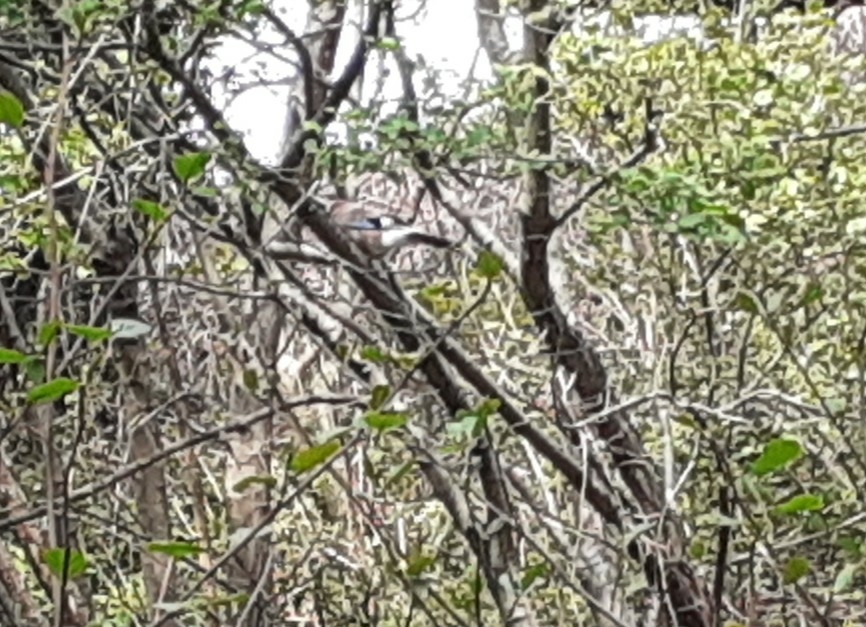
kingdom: Animalia
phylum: Chordata
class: Aves
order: Passeriformes
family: Corvidae
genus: Garrulus
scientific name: Garrulus glandarius
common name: Eurasian jay
